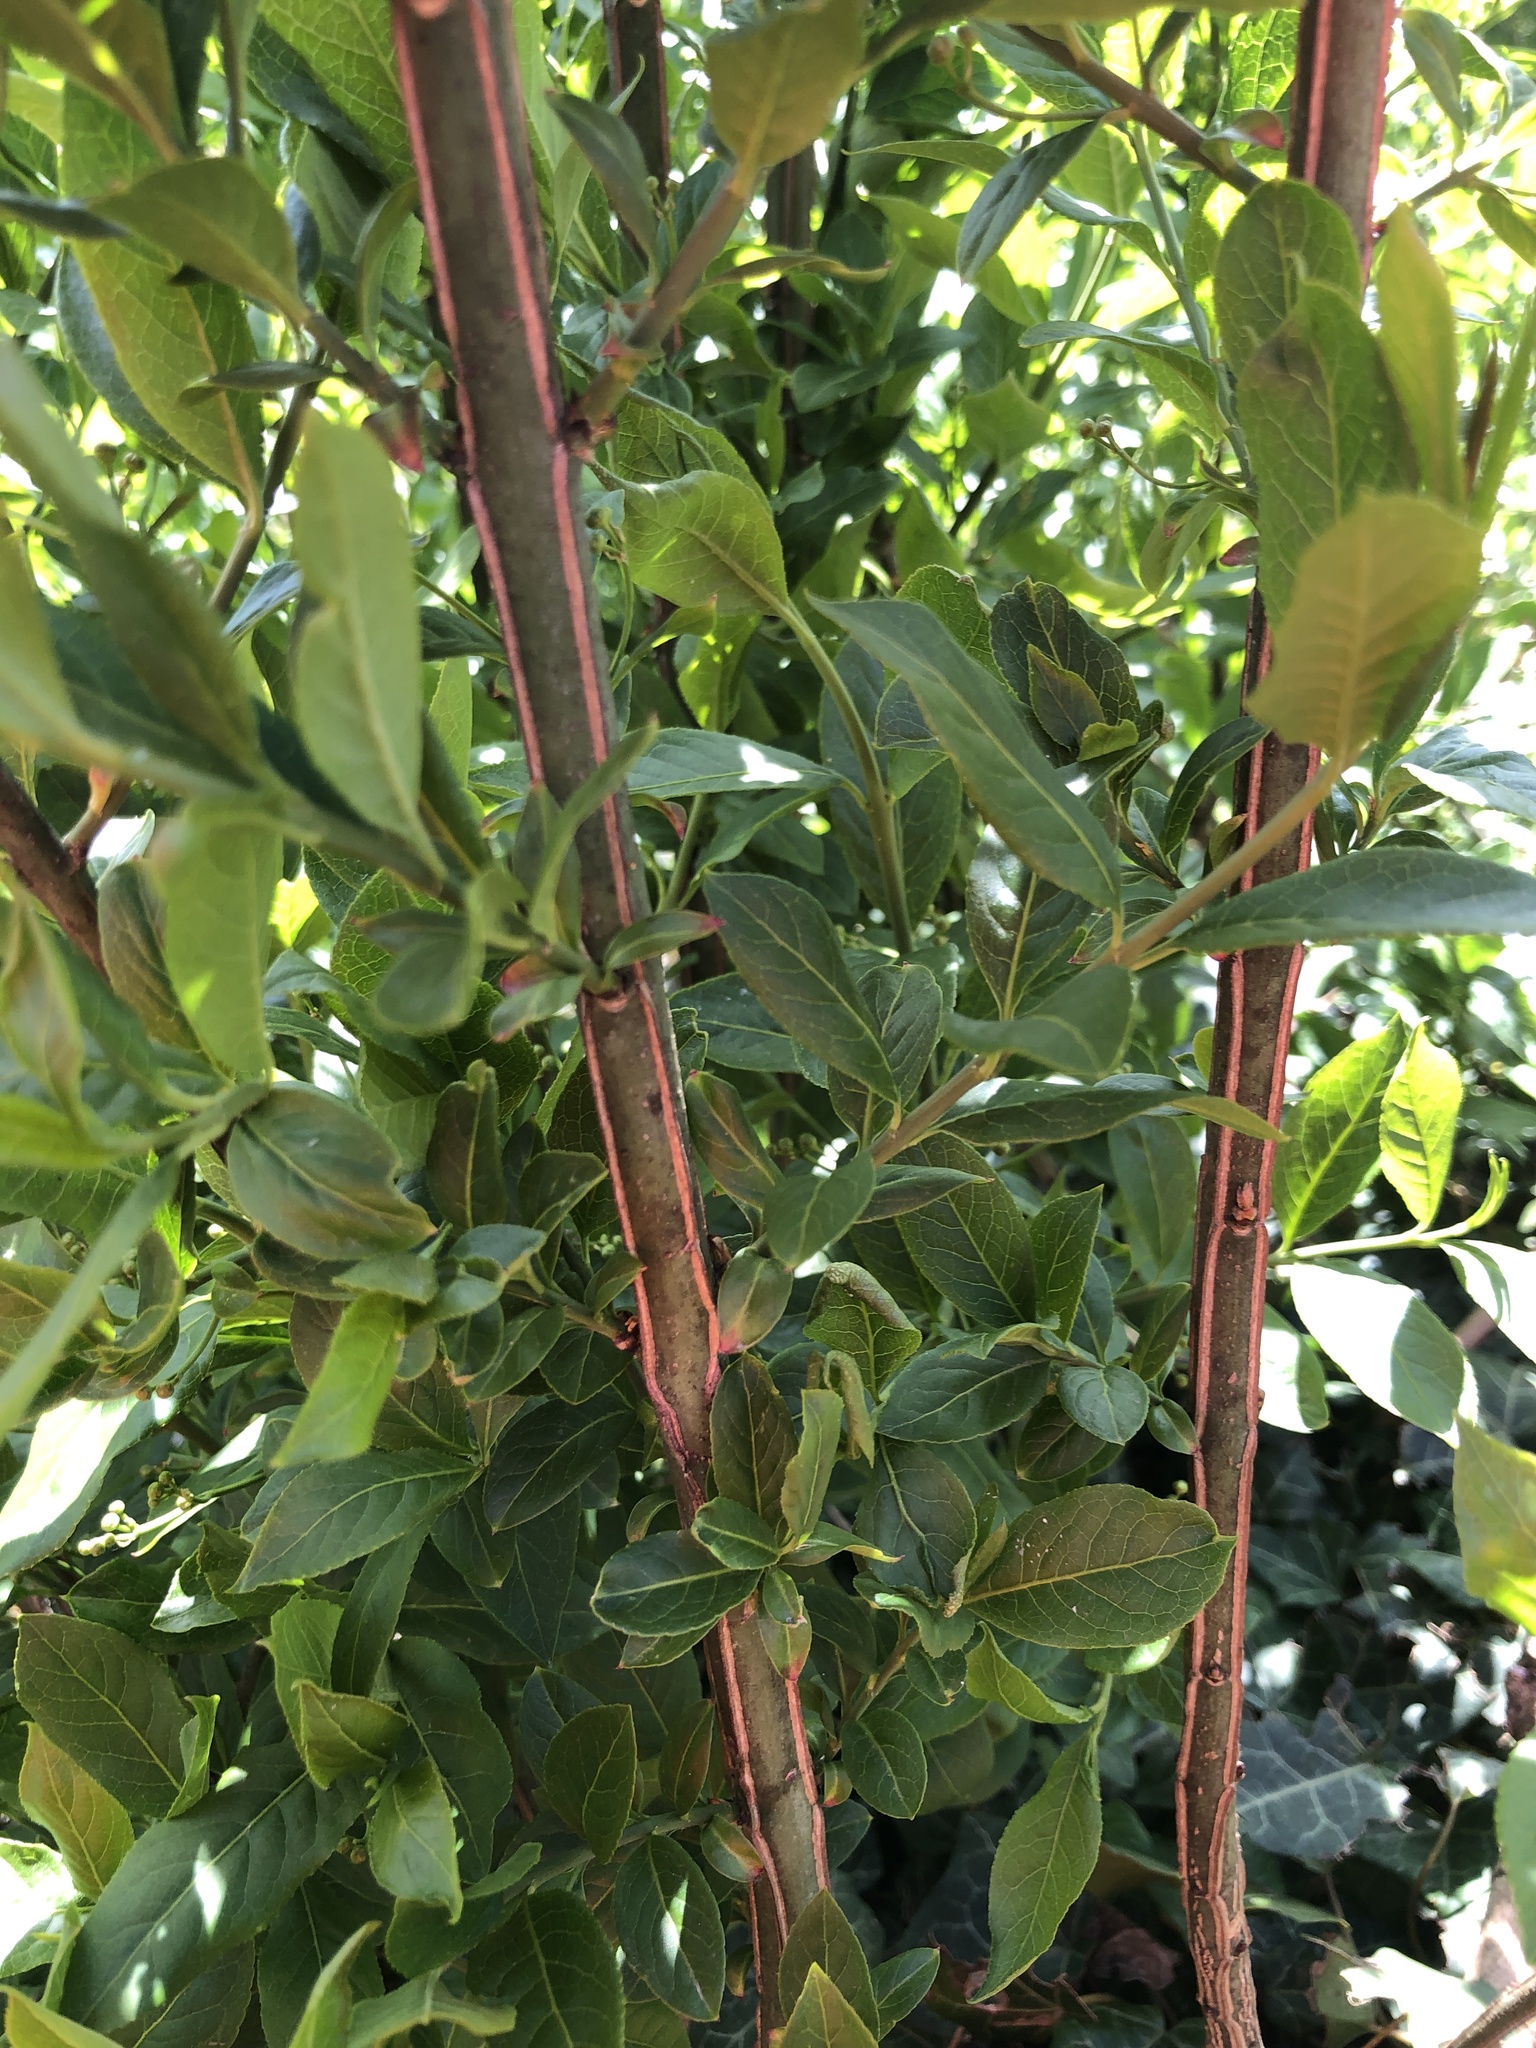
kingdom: Plantae
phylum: Tracheophyta
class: Magnoliopsida
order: Celastrales
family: Celastraceae
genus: Euonymus
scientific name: Euonymus europaeus
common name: Spindle
